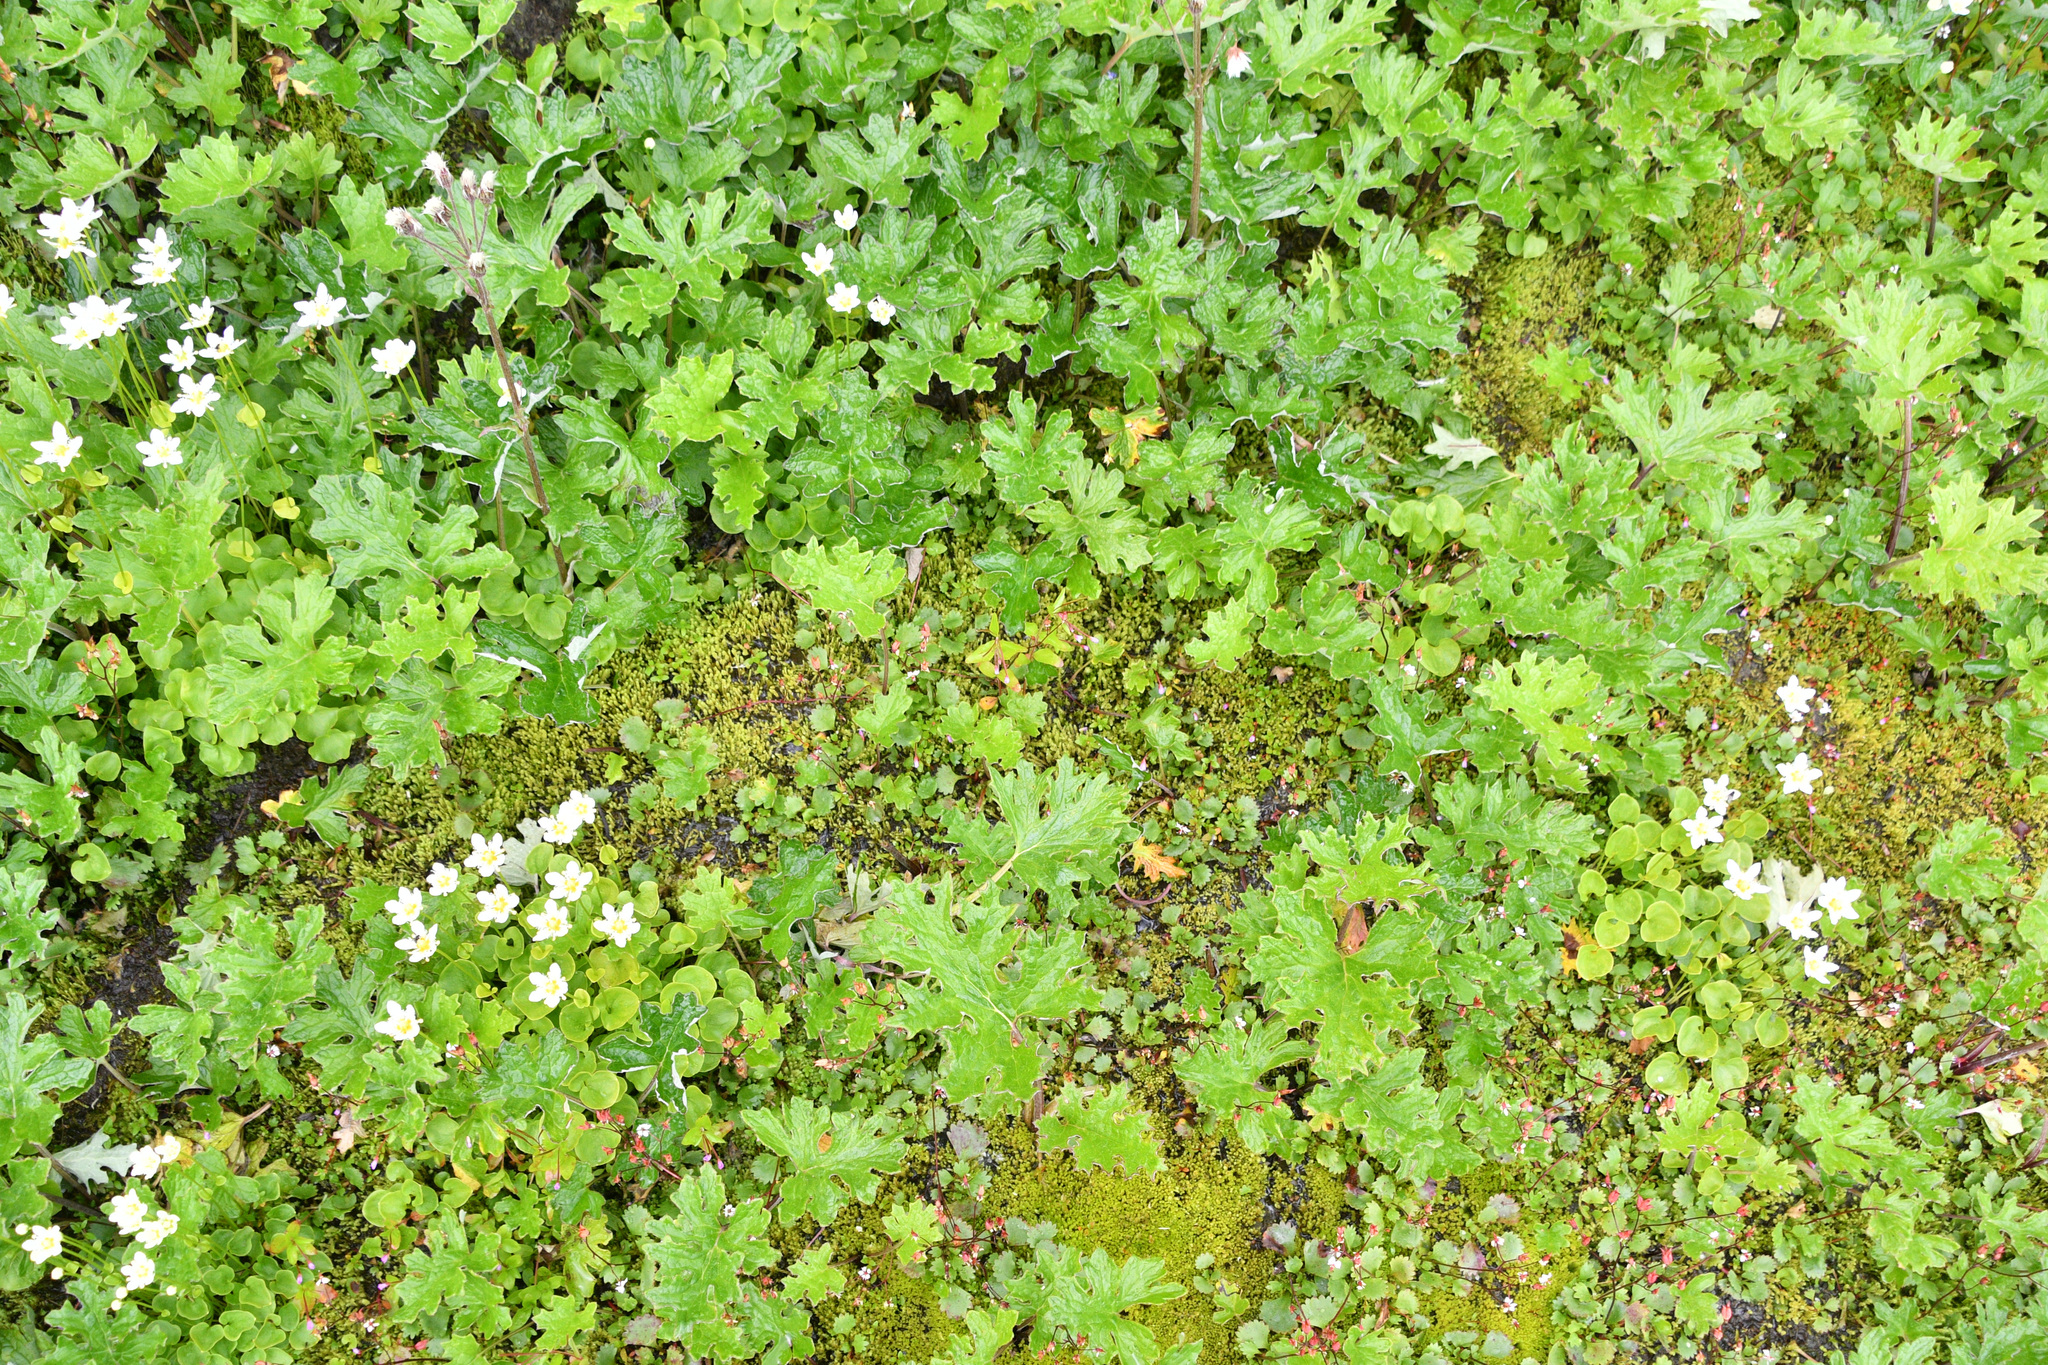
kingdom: Plantae
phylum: Tracheophyta
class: Magnoliopsida
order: Asterales
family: Asteraceae
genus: Petasites
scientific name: Petasites frigidus
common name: Arctic butterbur
